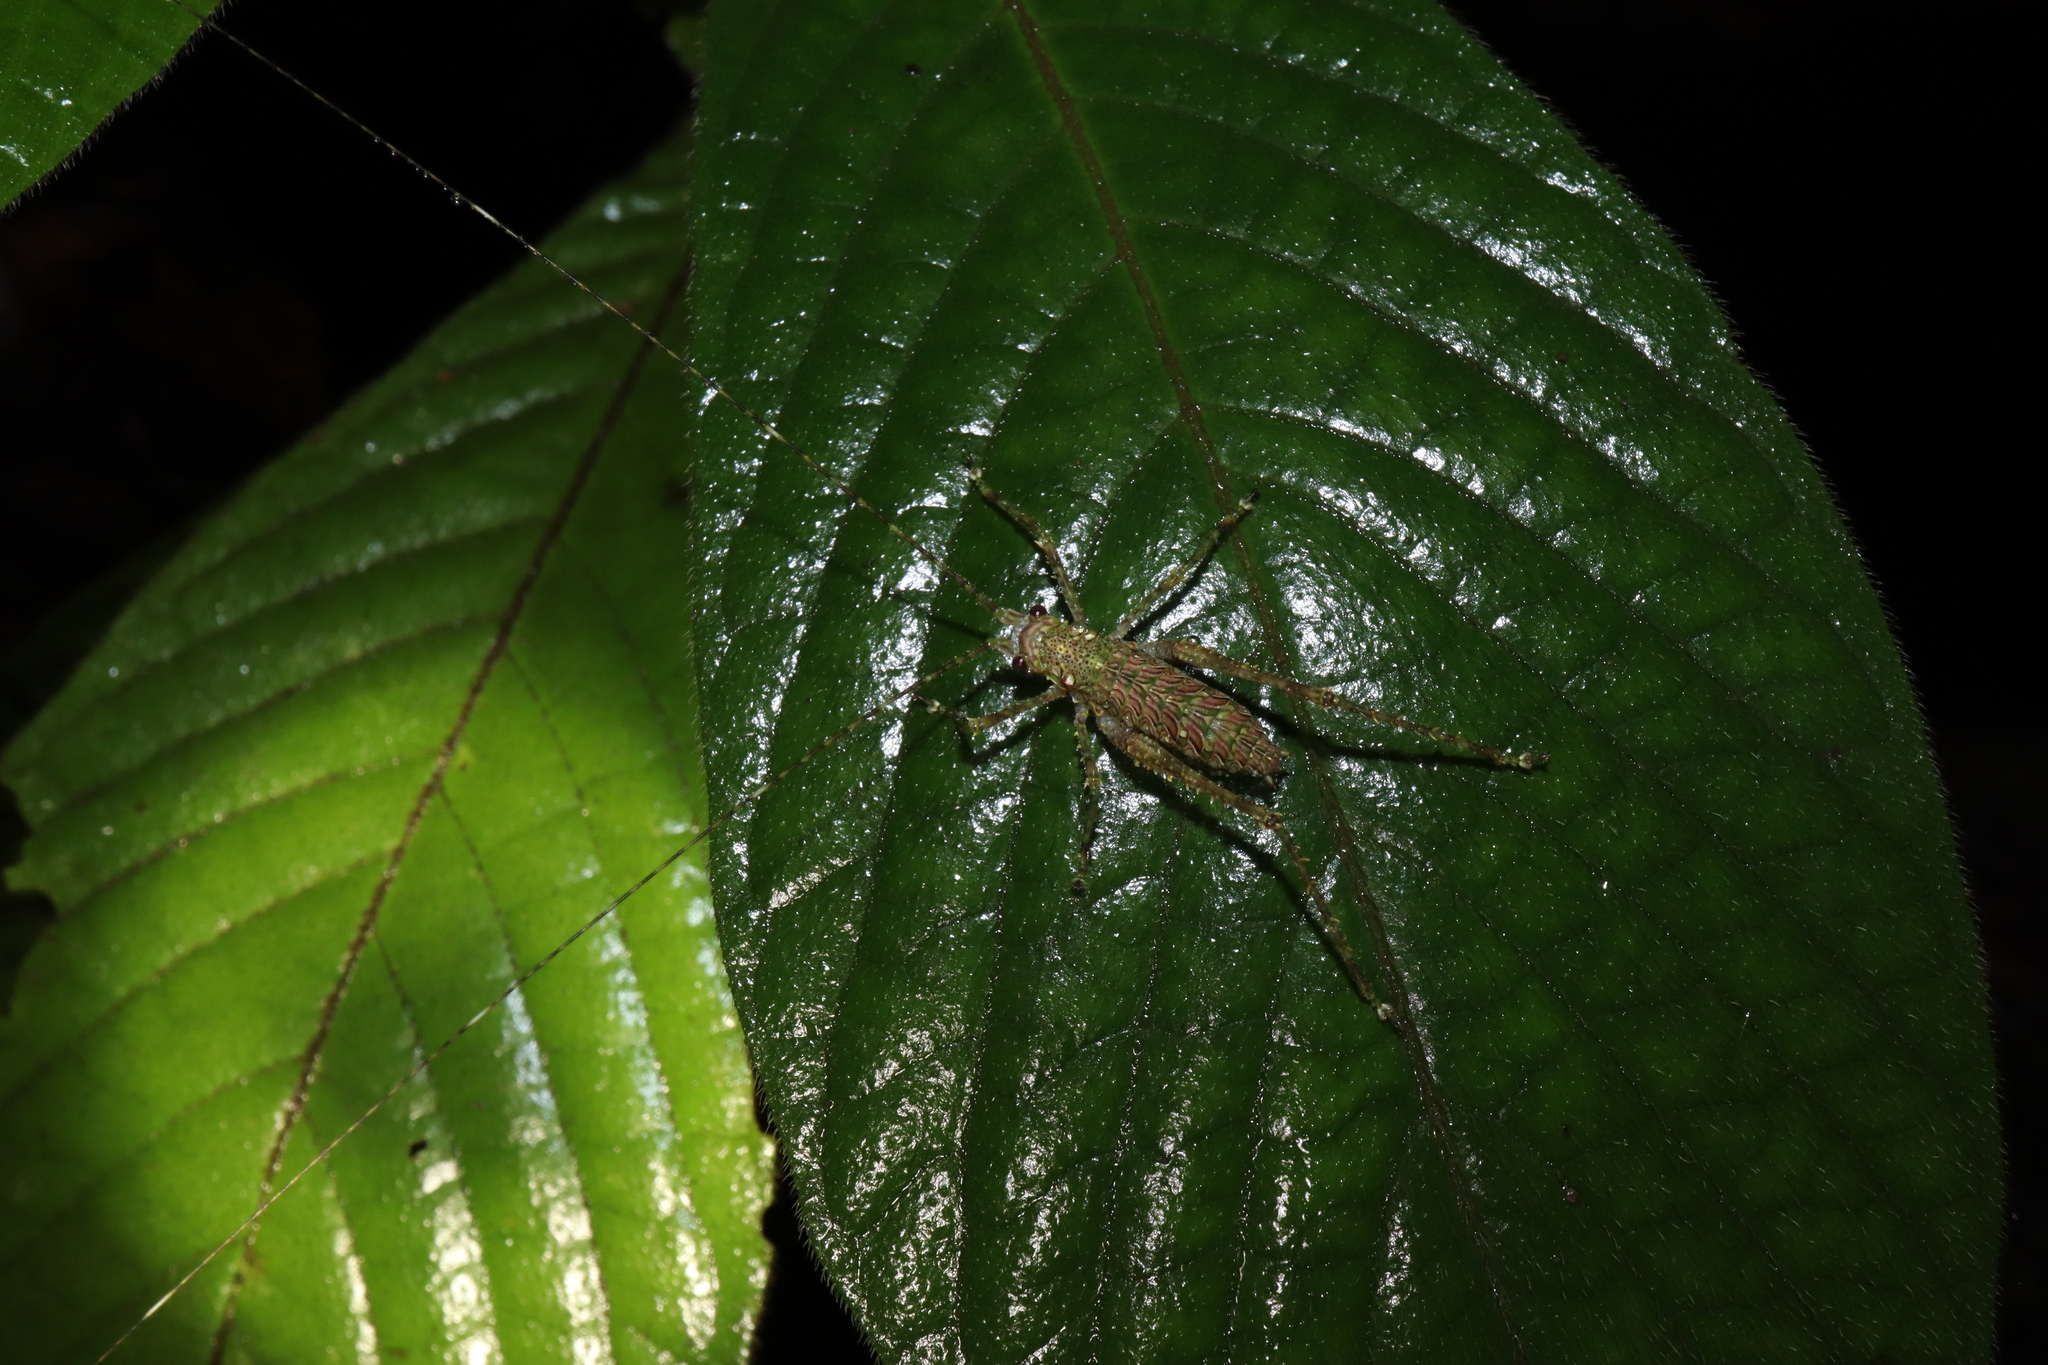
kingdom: Animalia
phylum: Arthropoda
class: Insecta
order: Orthoptera
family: Tettigoniidae
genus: Phricta
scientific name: Phricta spinosa
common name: Giant spiny forest katydid
